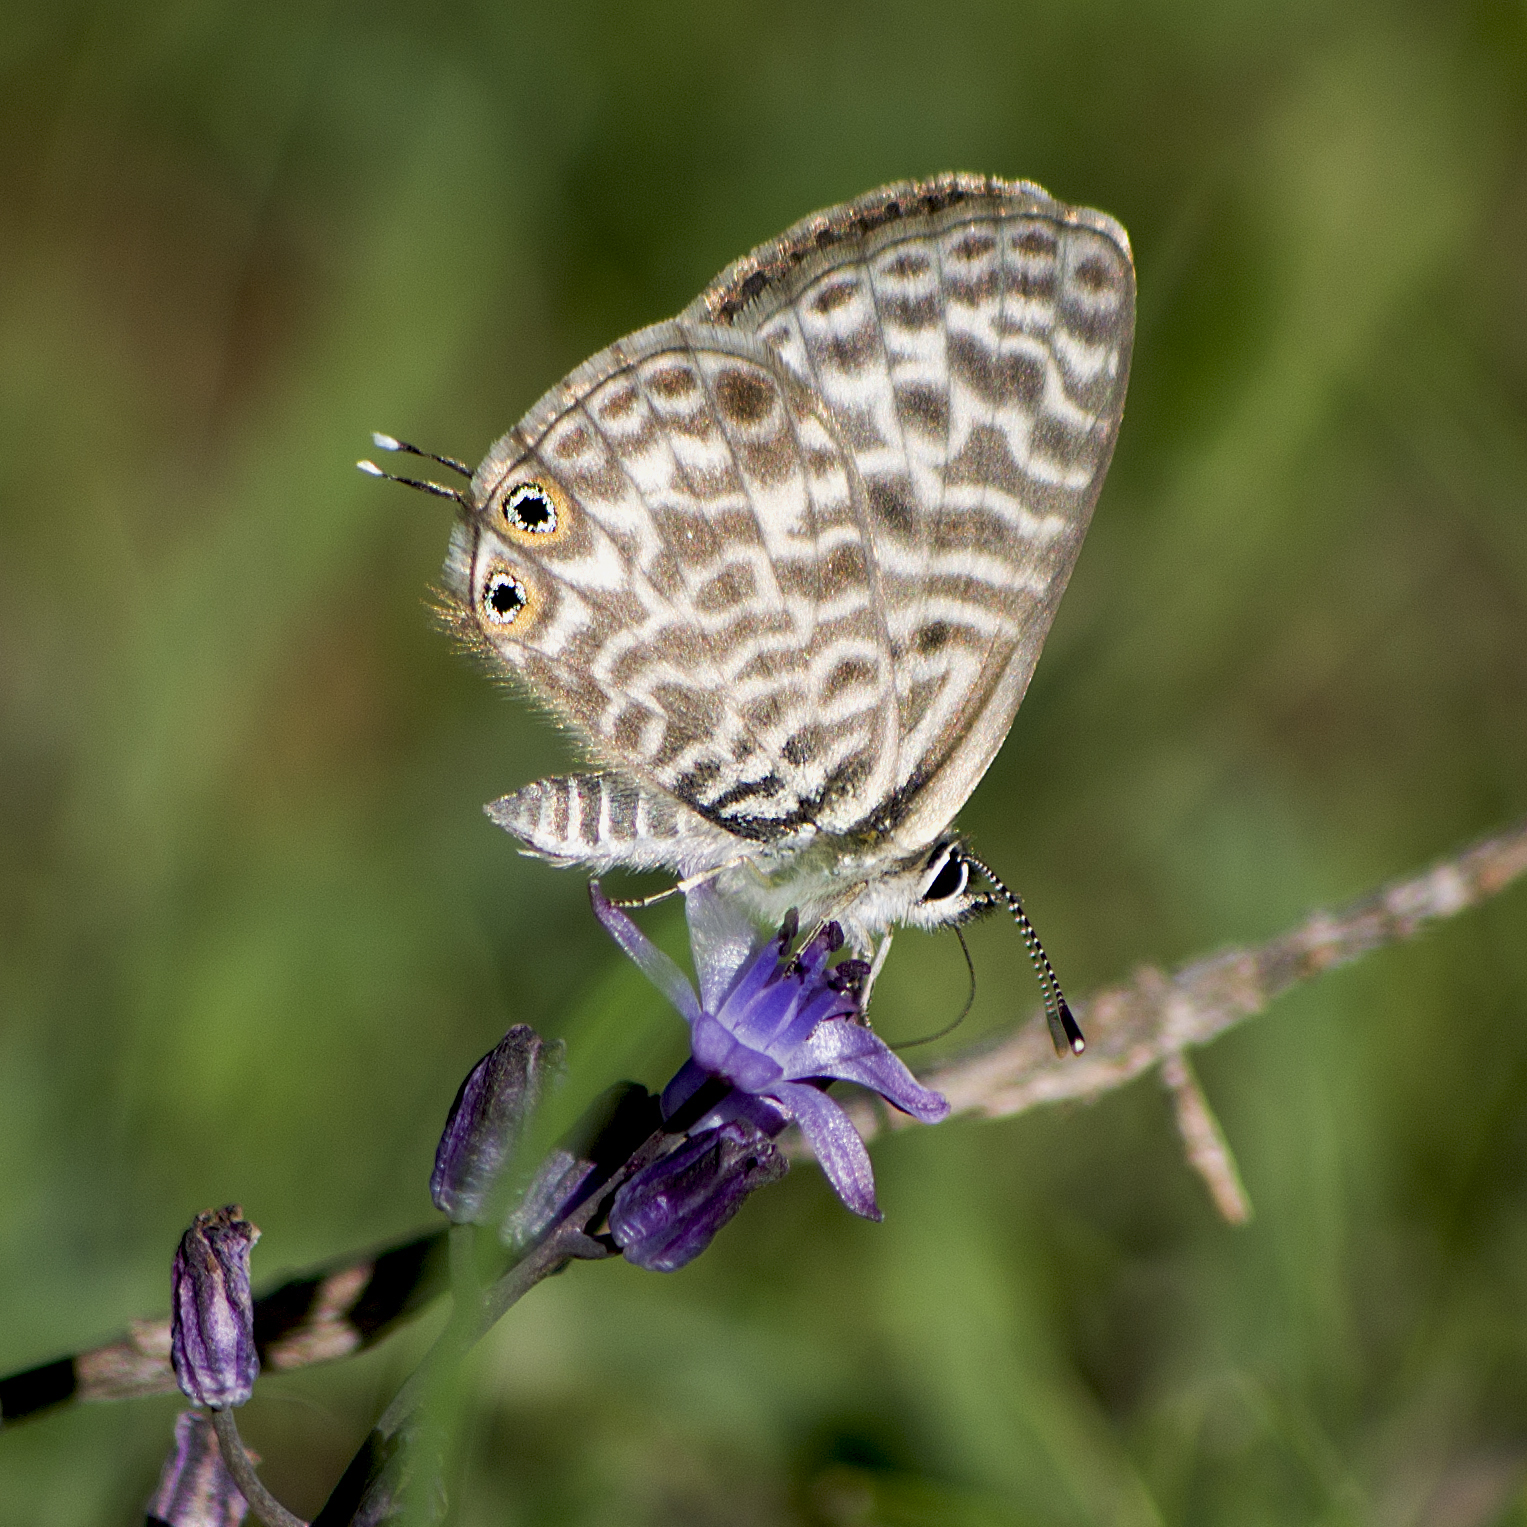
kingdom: Animalia
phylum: Arthropoda
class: Insecta
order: Lepidoptera
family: Lycaenidae
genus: Leptotes
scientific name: Leptotes pirithous
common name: Lang's short-tailed blue
